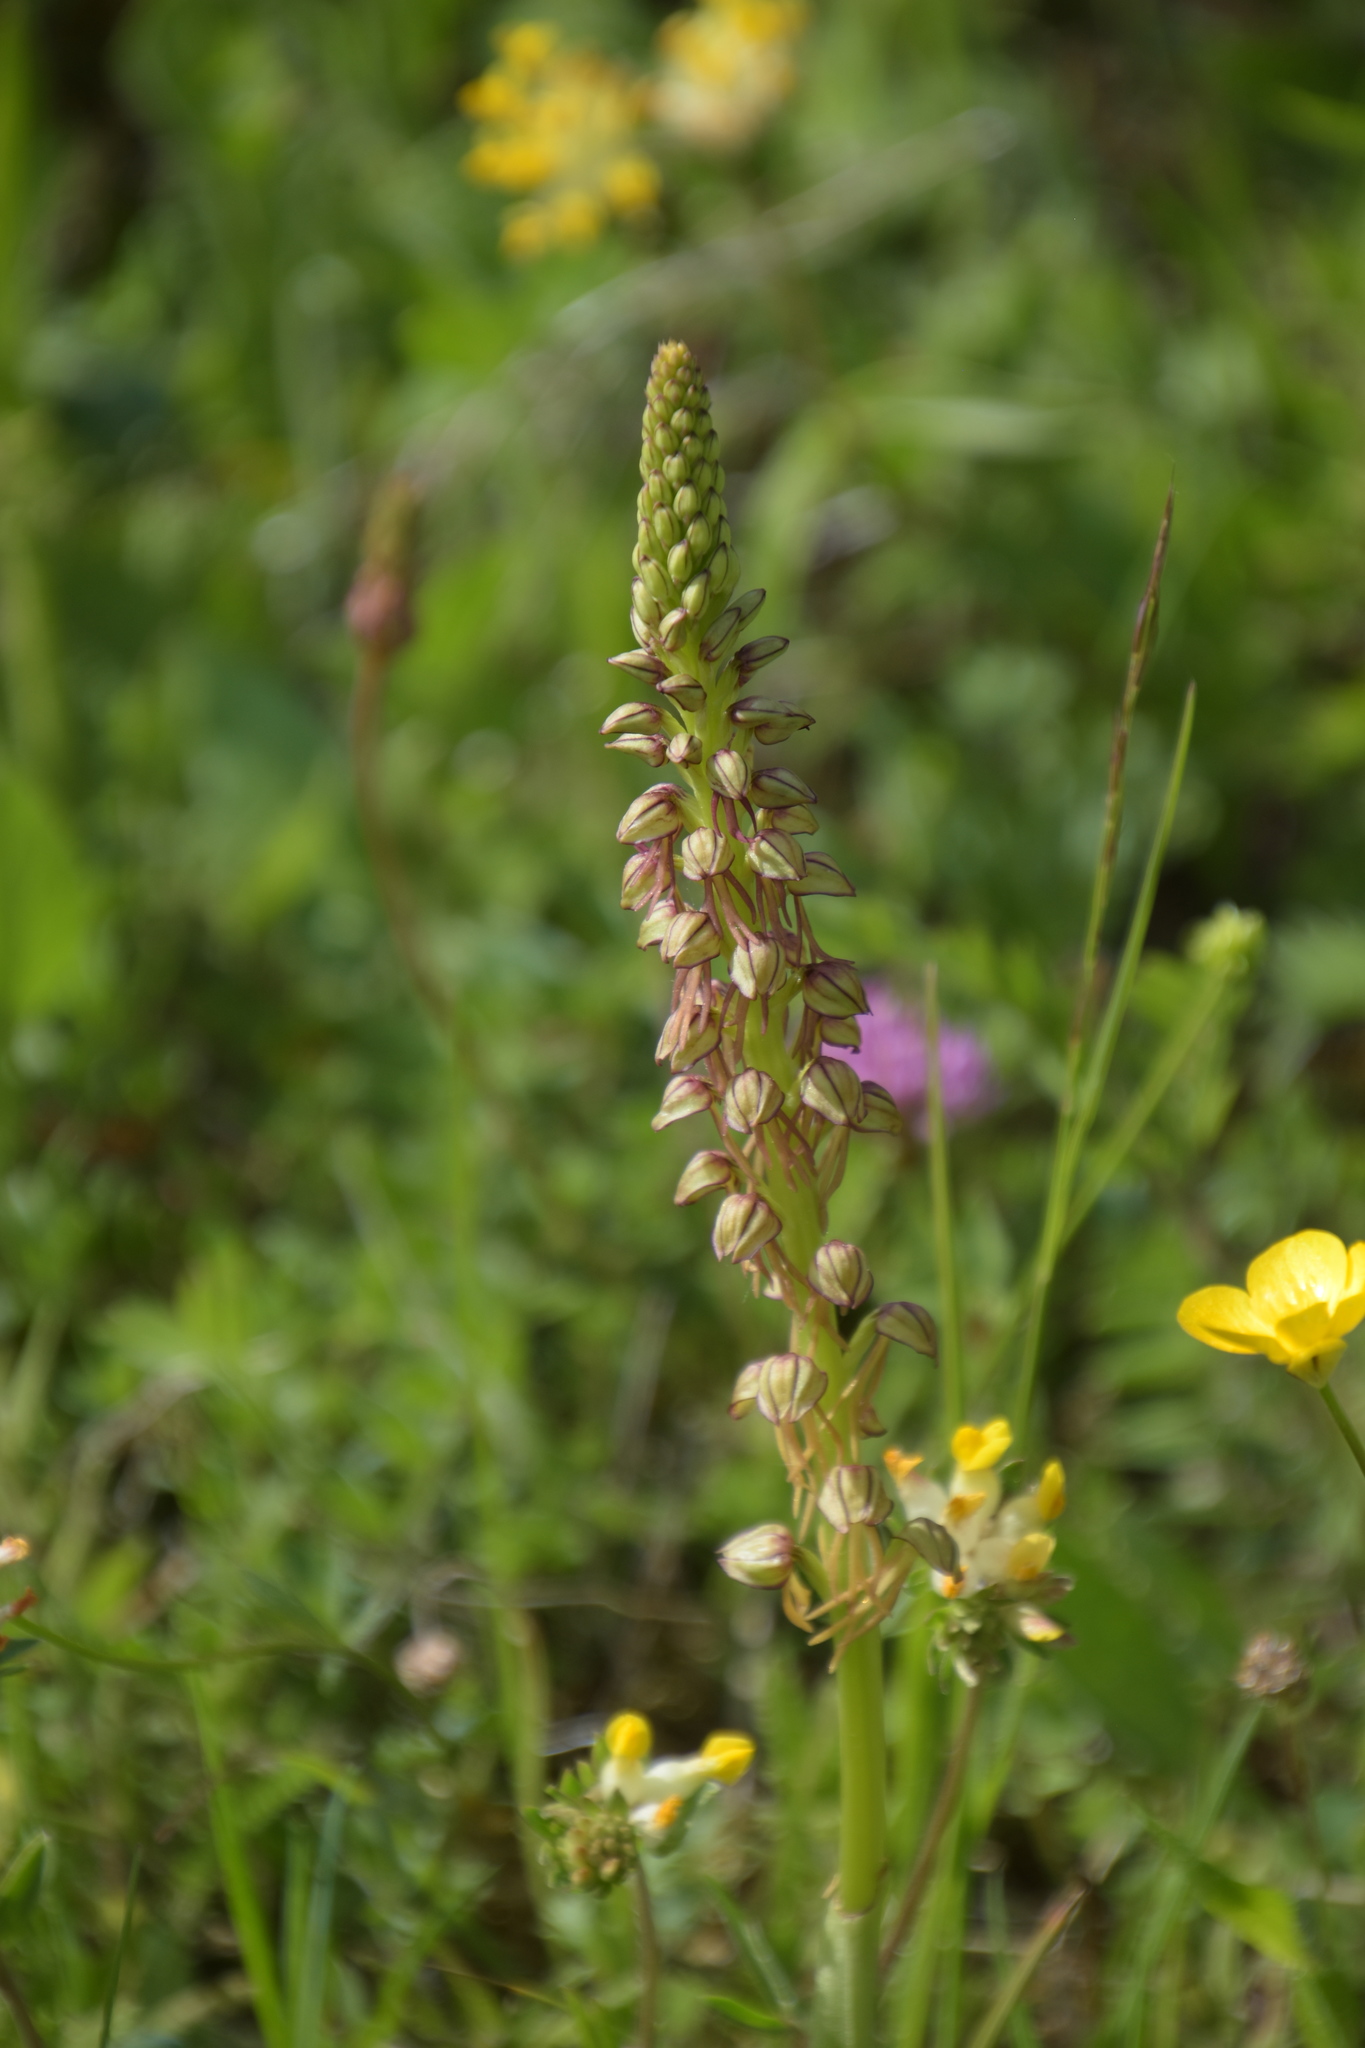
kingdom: Plantae
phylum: Tracheophyta
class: Liliopsida
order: Asparagales
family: Orchidaceae
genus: Orchis
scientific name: Orchis anthropophora
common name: Man orchid
